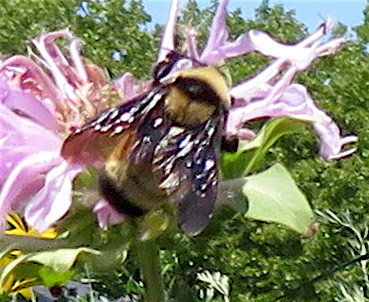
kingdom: Animalia
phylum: Arthropoda
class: Insecta
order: Hymenoptera
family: Apidae
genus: Bombus
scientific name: Bombus fervidus
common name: Yellow bumble bee
